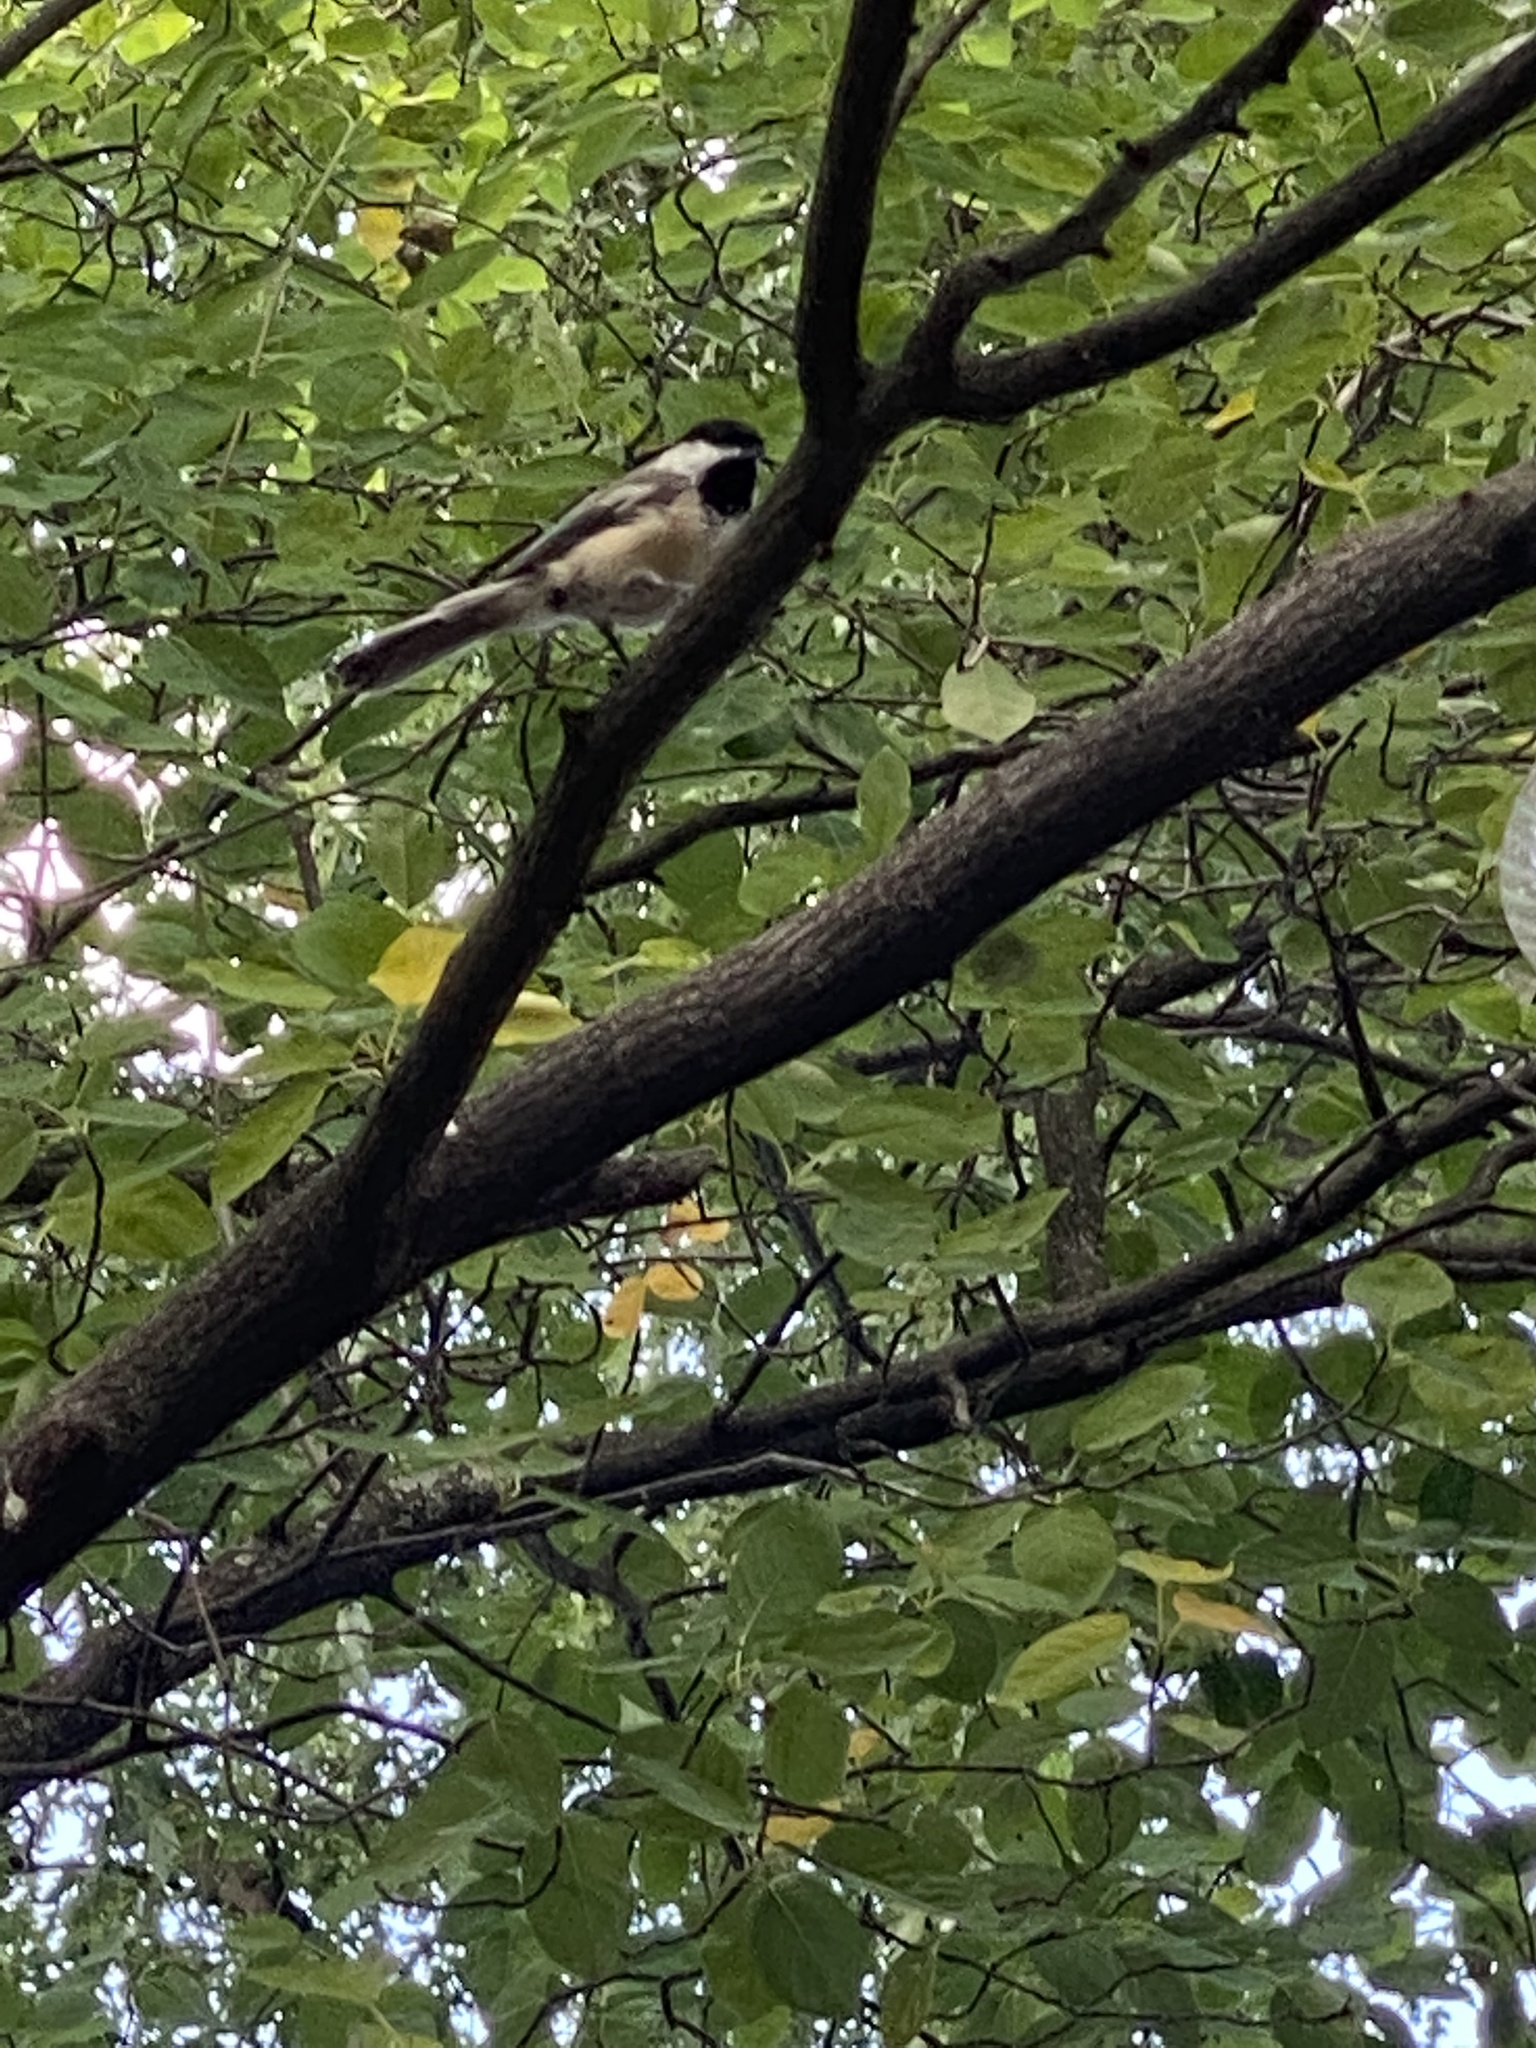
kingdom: Animalia
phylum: Chordata
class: Aves
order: Passeriformes
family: Paridae
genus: Poecile
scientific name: Poecile atricapillus
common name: Black-capped chickadee
